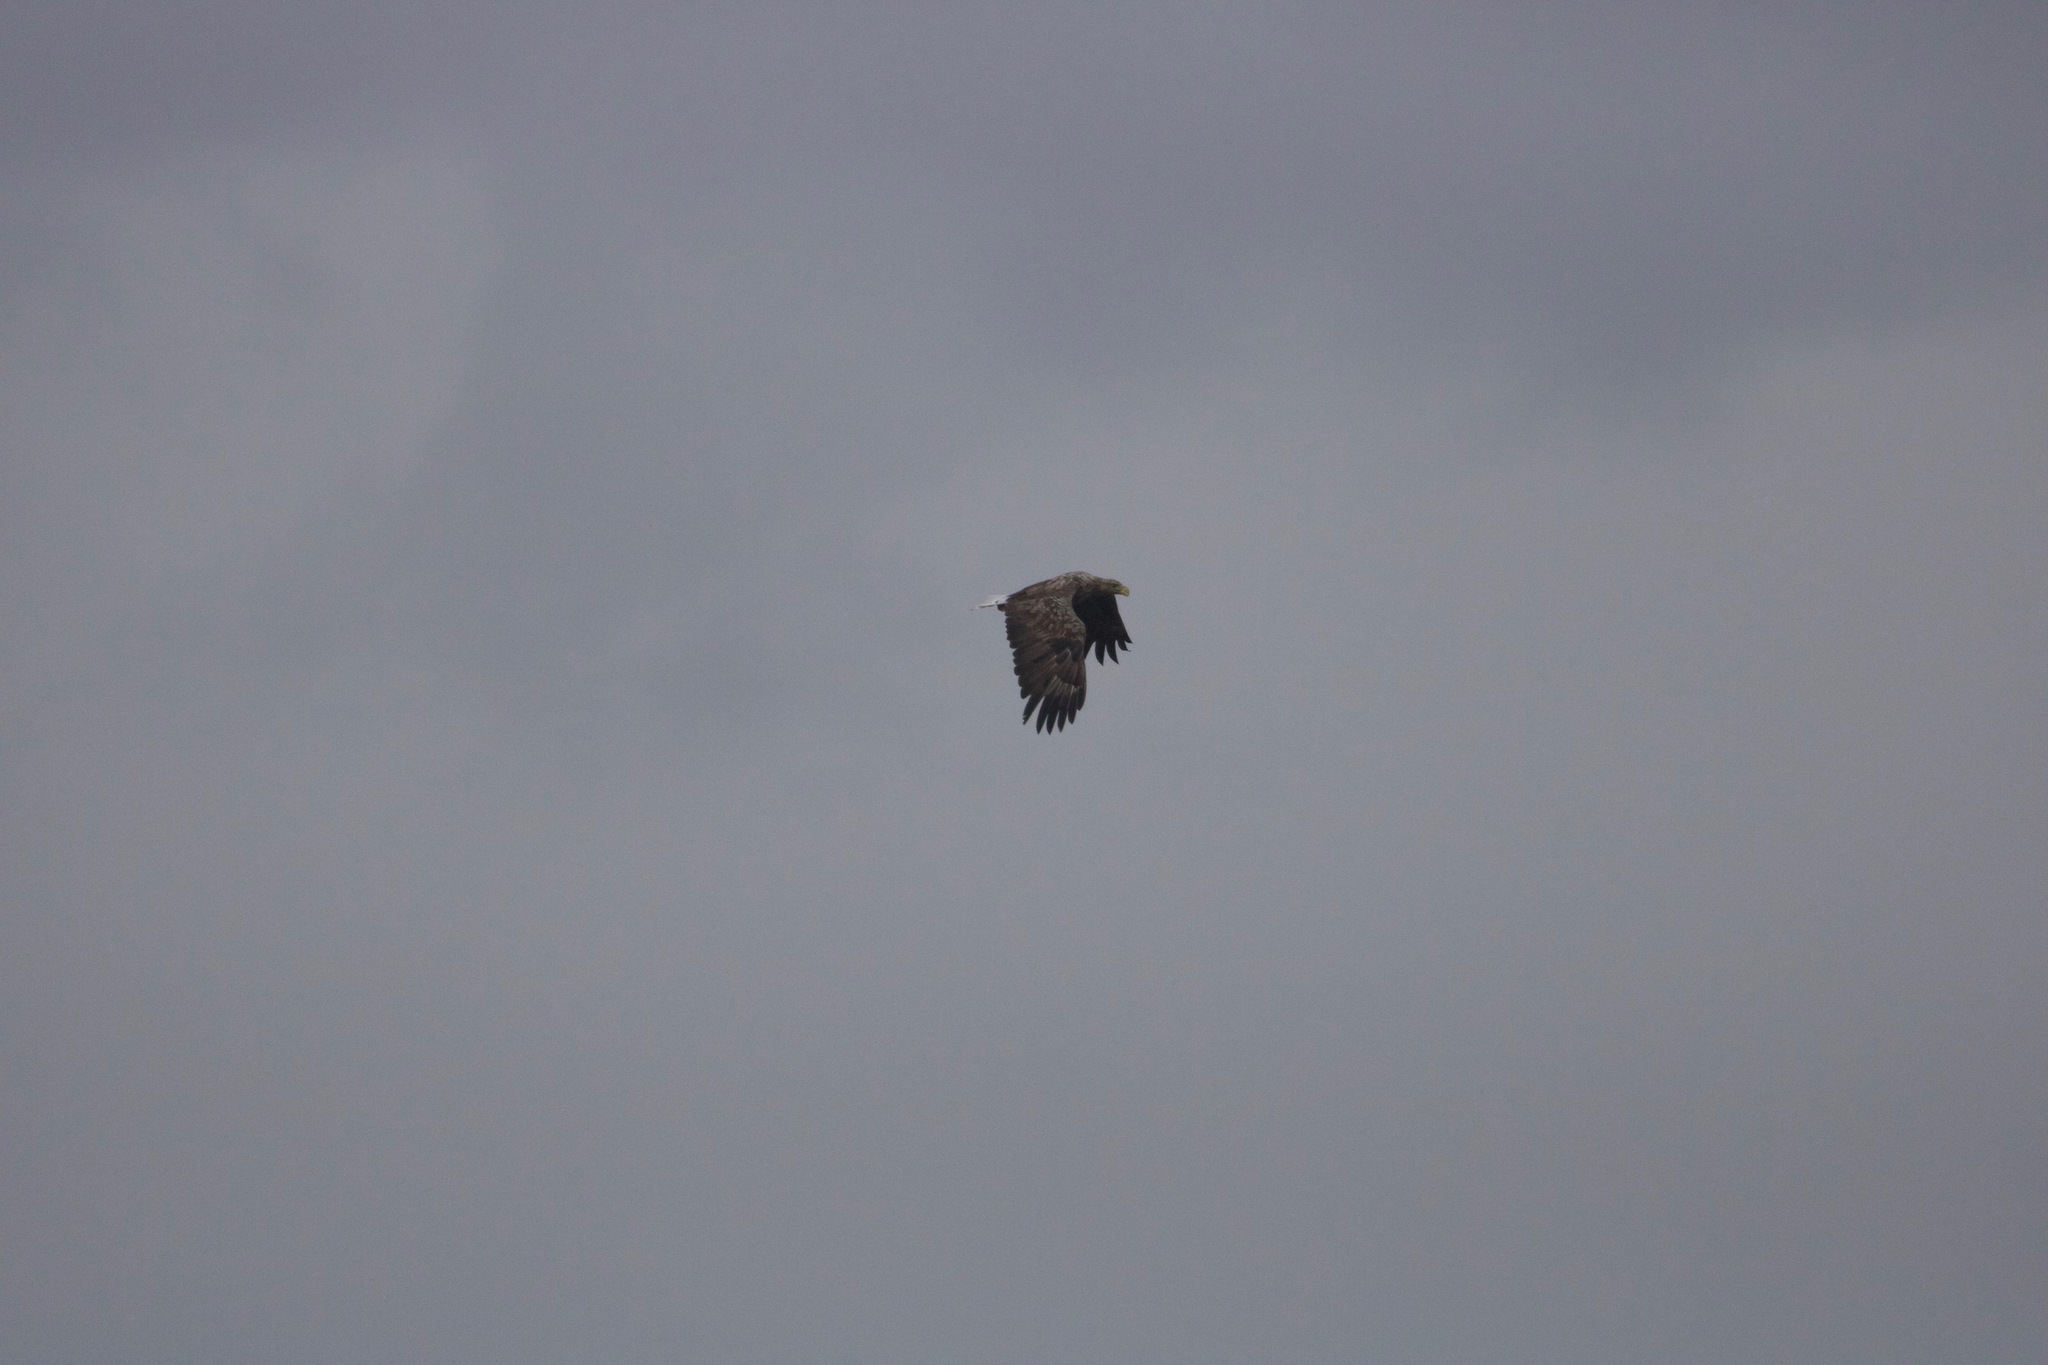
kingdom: Animalia
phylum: Chordata
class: Aves
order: Accipitriformes
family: Accipitridae
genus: Haliaeetus
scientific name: Haliaeetus albicilla
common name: White-tailed eagle
